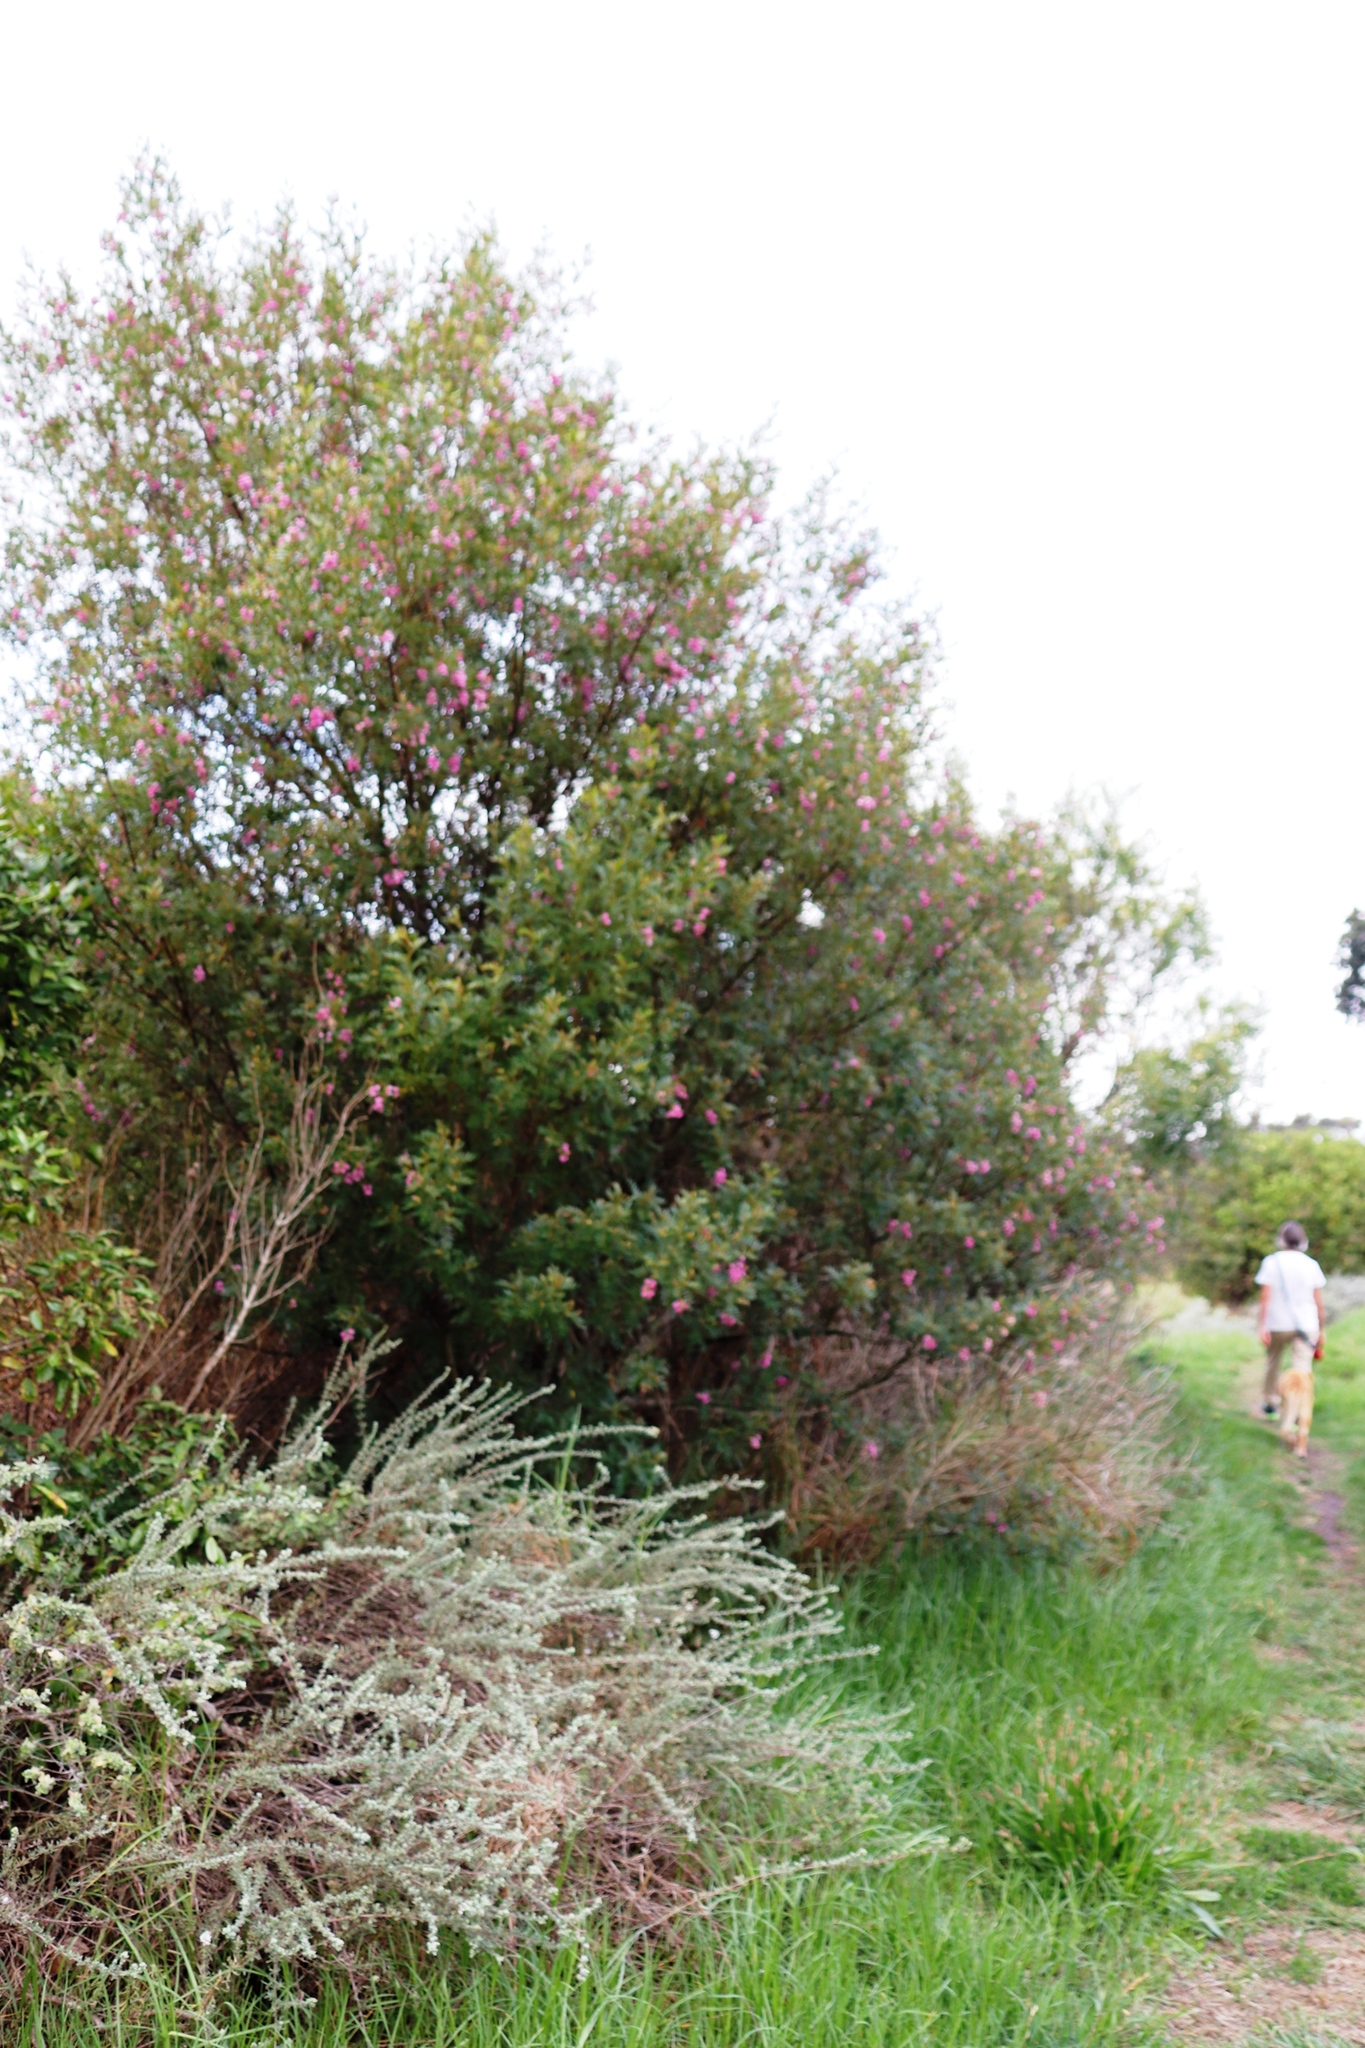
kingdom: Plantae
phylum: Tracheophyta
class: Magnoliopsida
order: Fabales
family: Fabaceae
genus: Virgilia
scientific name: Virgilia oroboides
